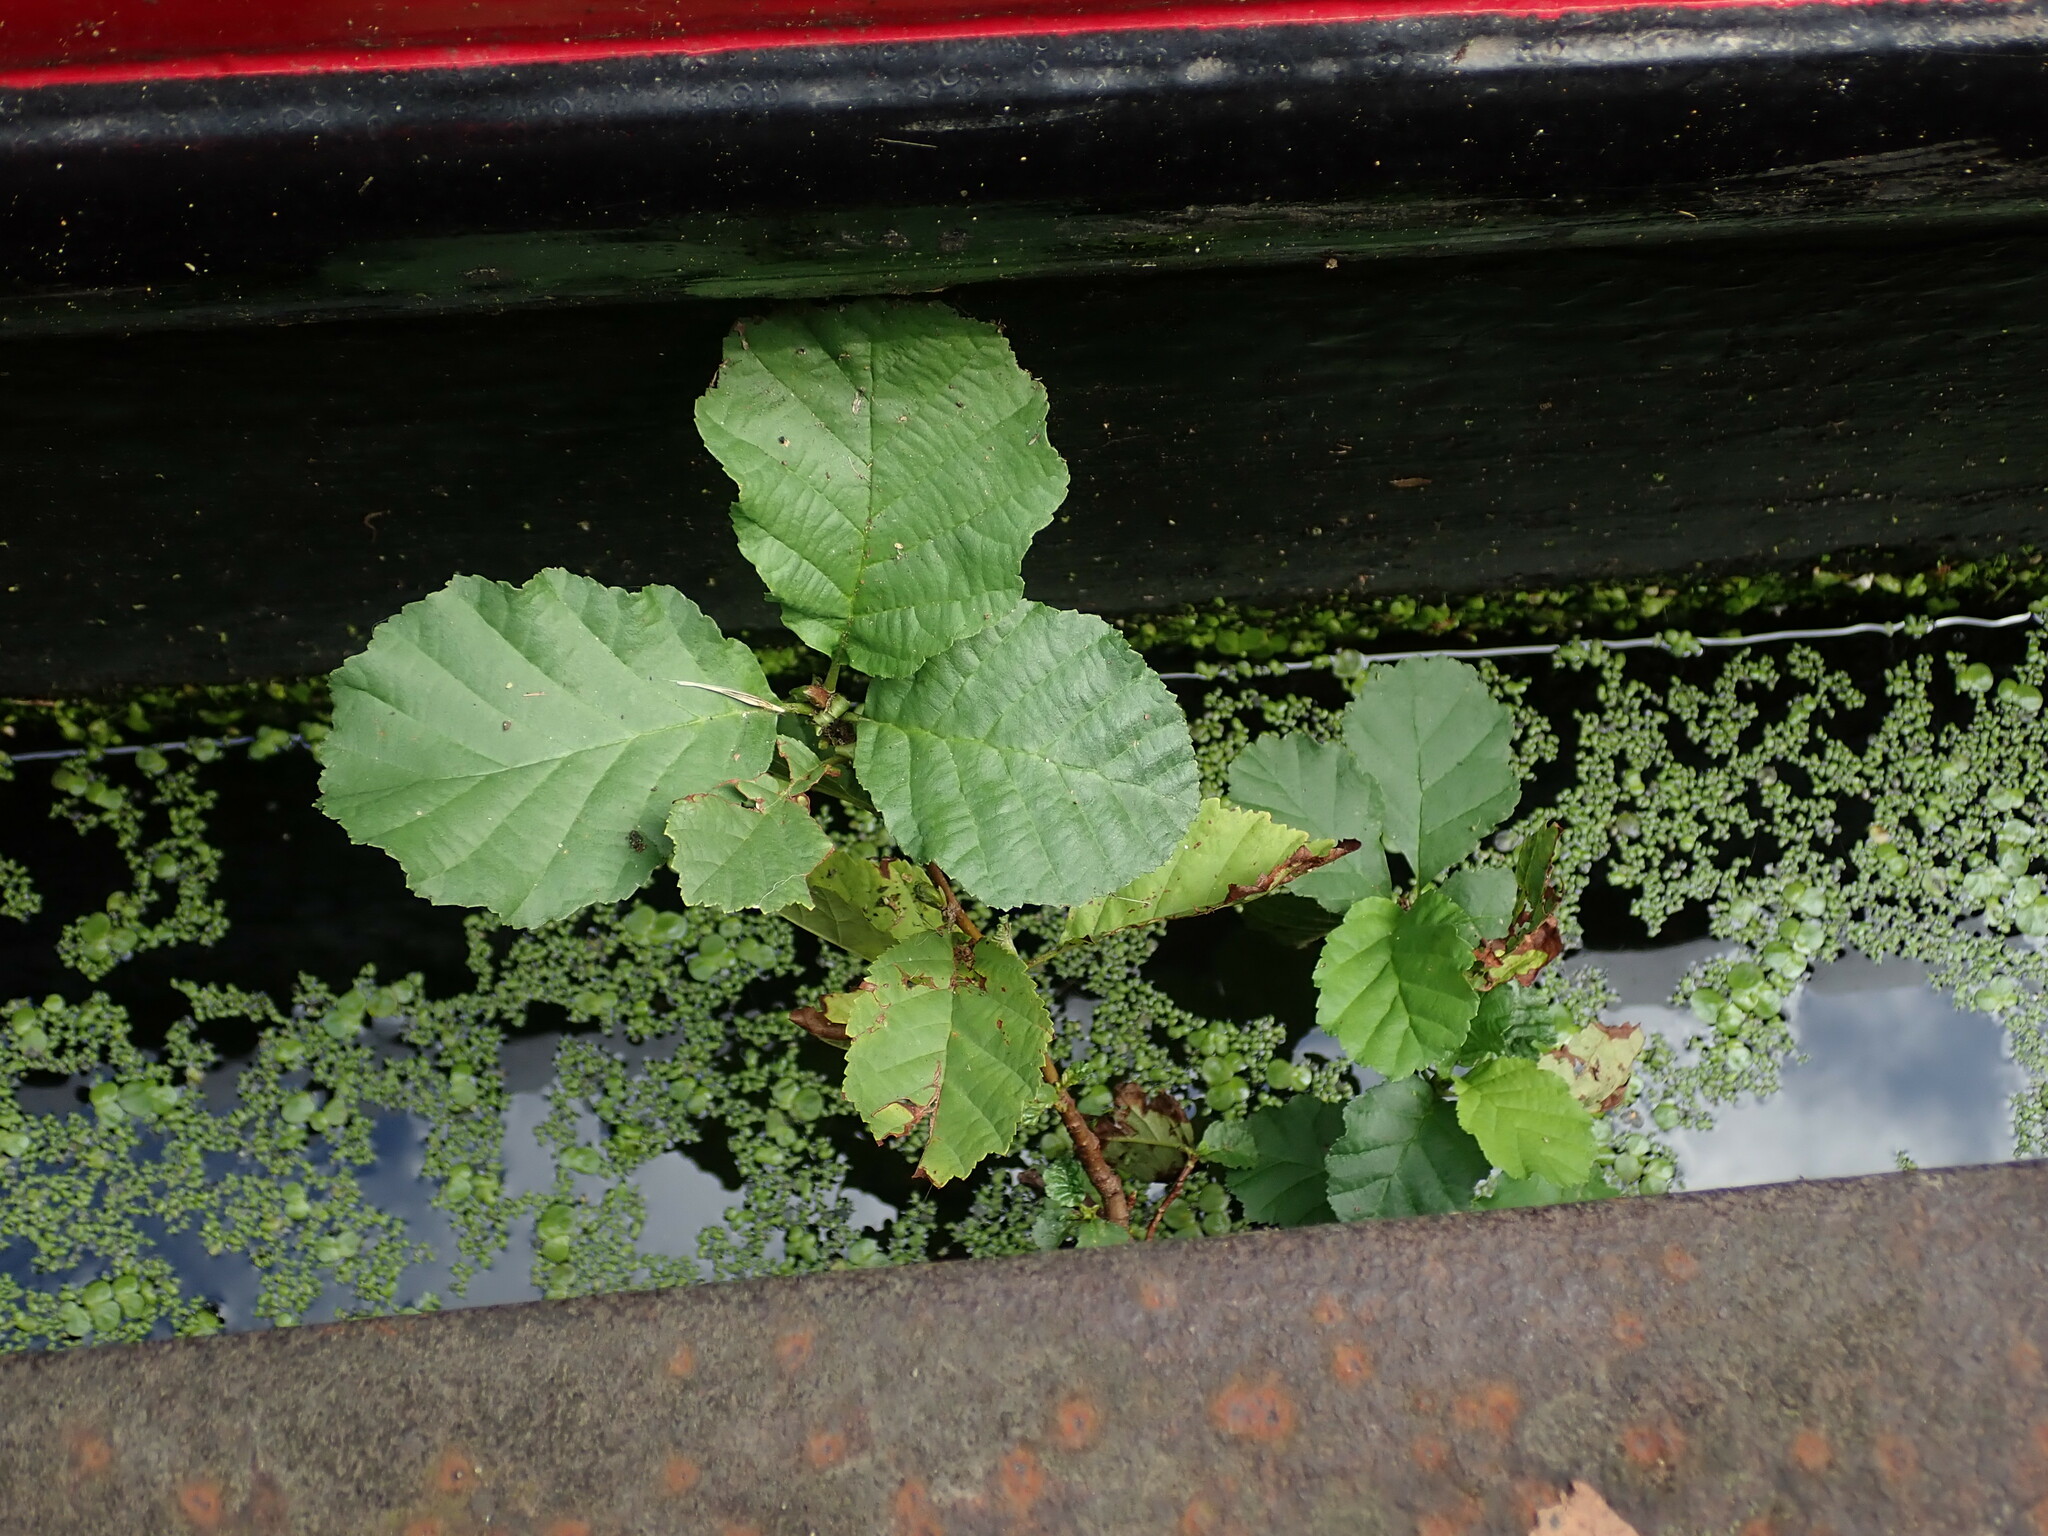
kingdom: Plantae
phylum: Tracheophyta
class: Magnoliopsida
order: Fagales
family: Betulaceae
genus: Alnus
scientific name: Alnus glutinosa
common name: Black alder
